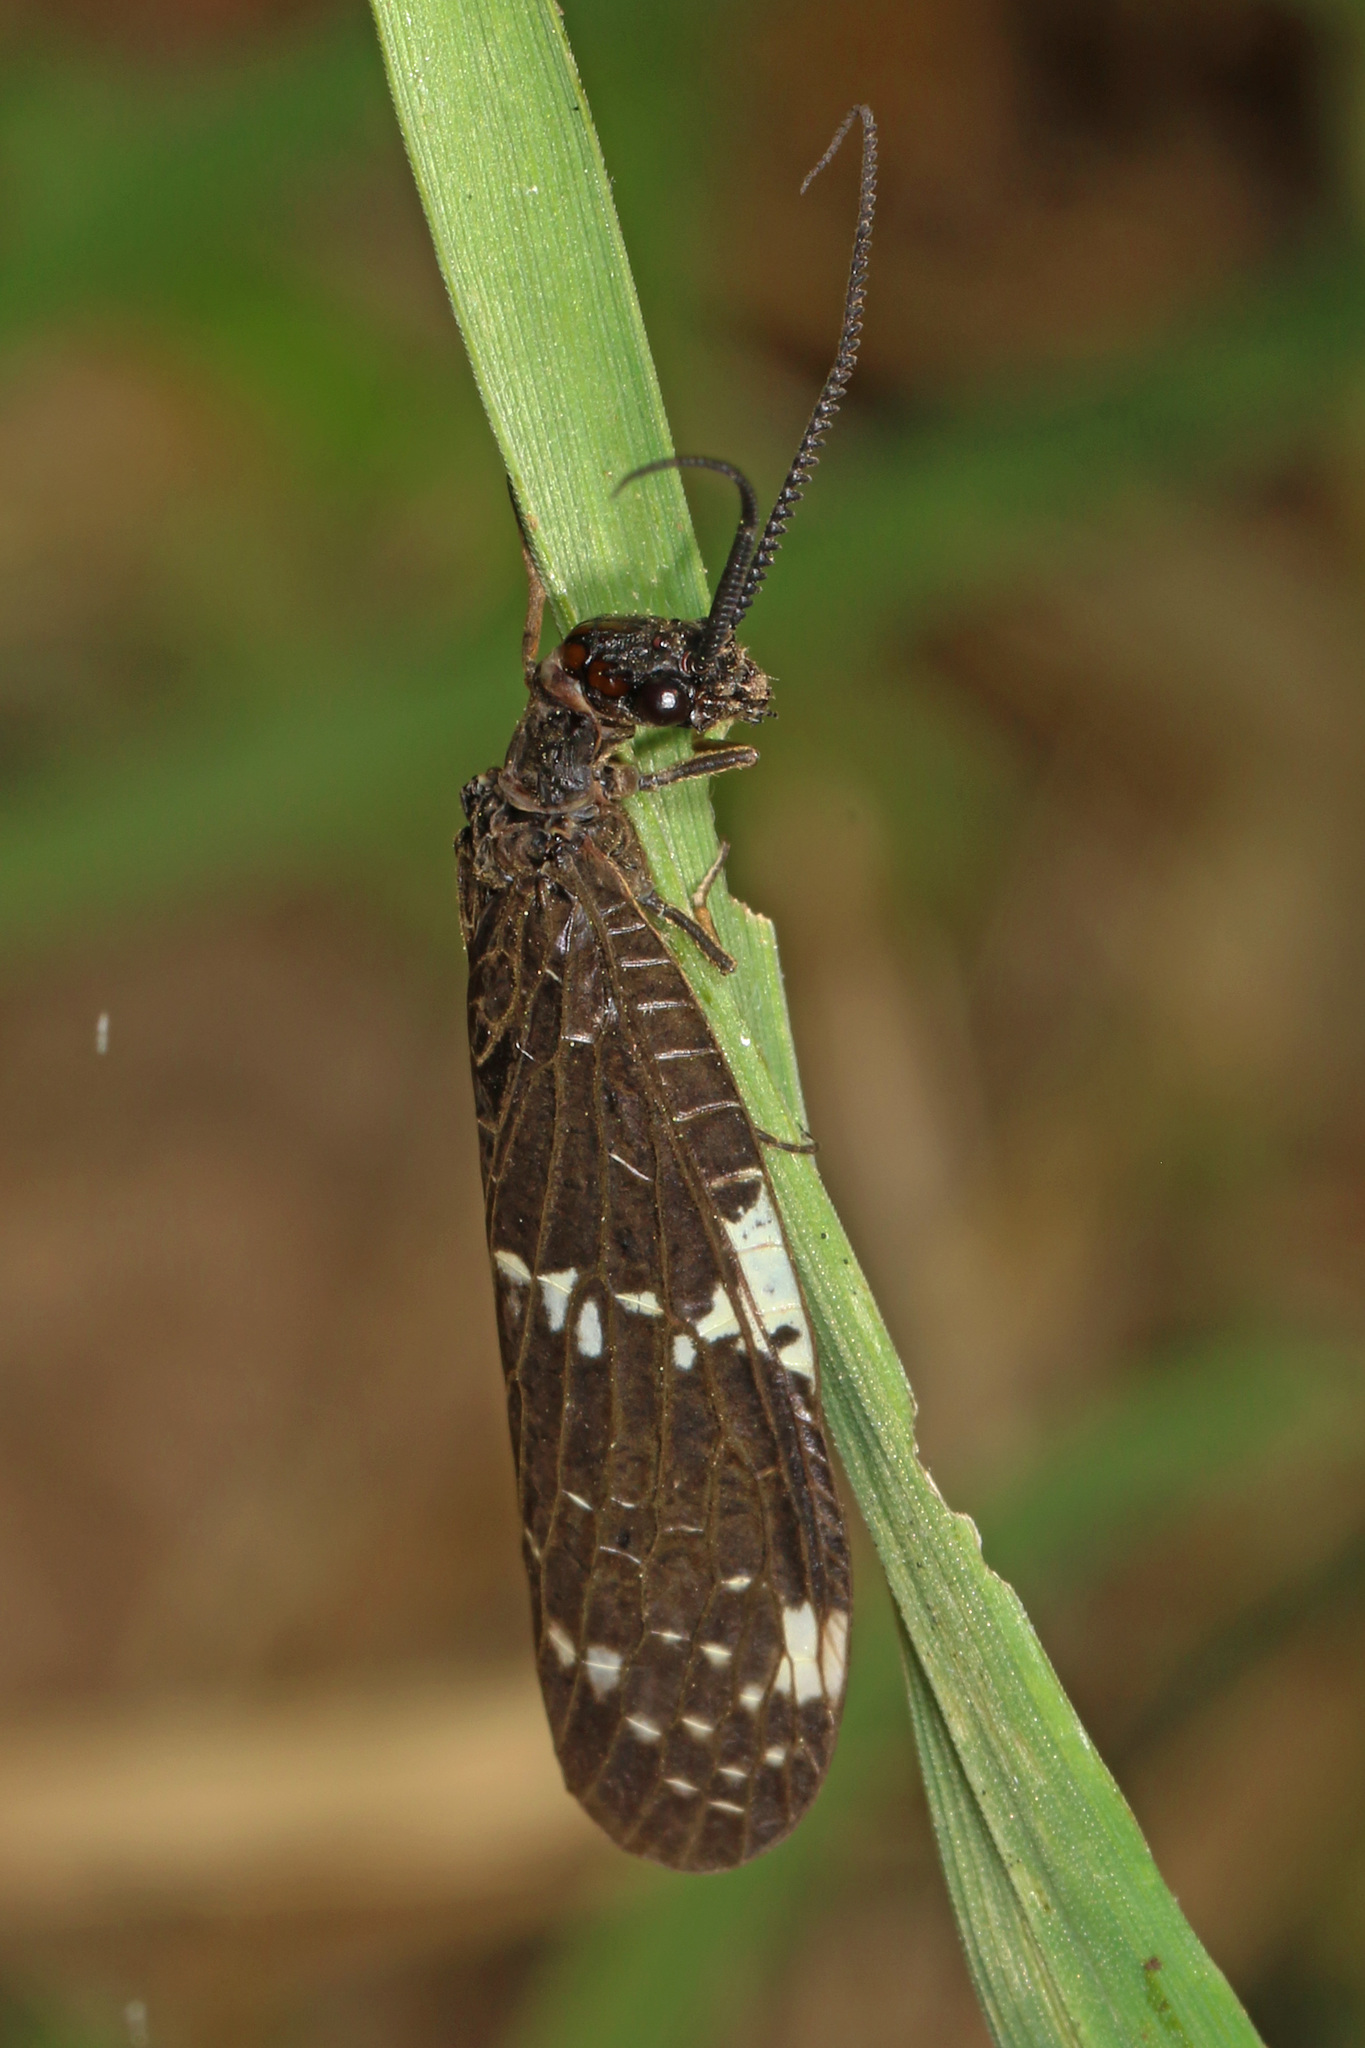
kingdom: Animalia
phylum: Arthropoda
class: Insecta
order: Megaloptera
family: Corydalidae
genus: Nigronia
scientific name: Nigronia serricornis
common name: Serrate dark fishfly
